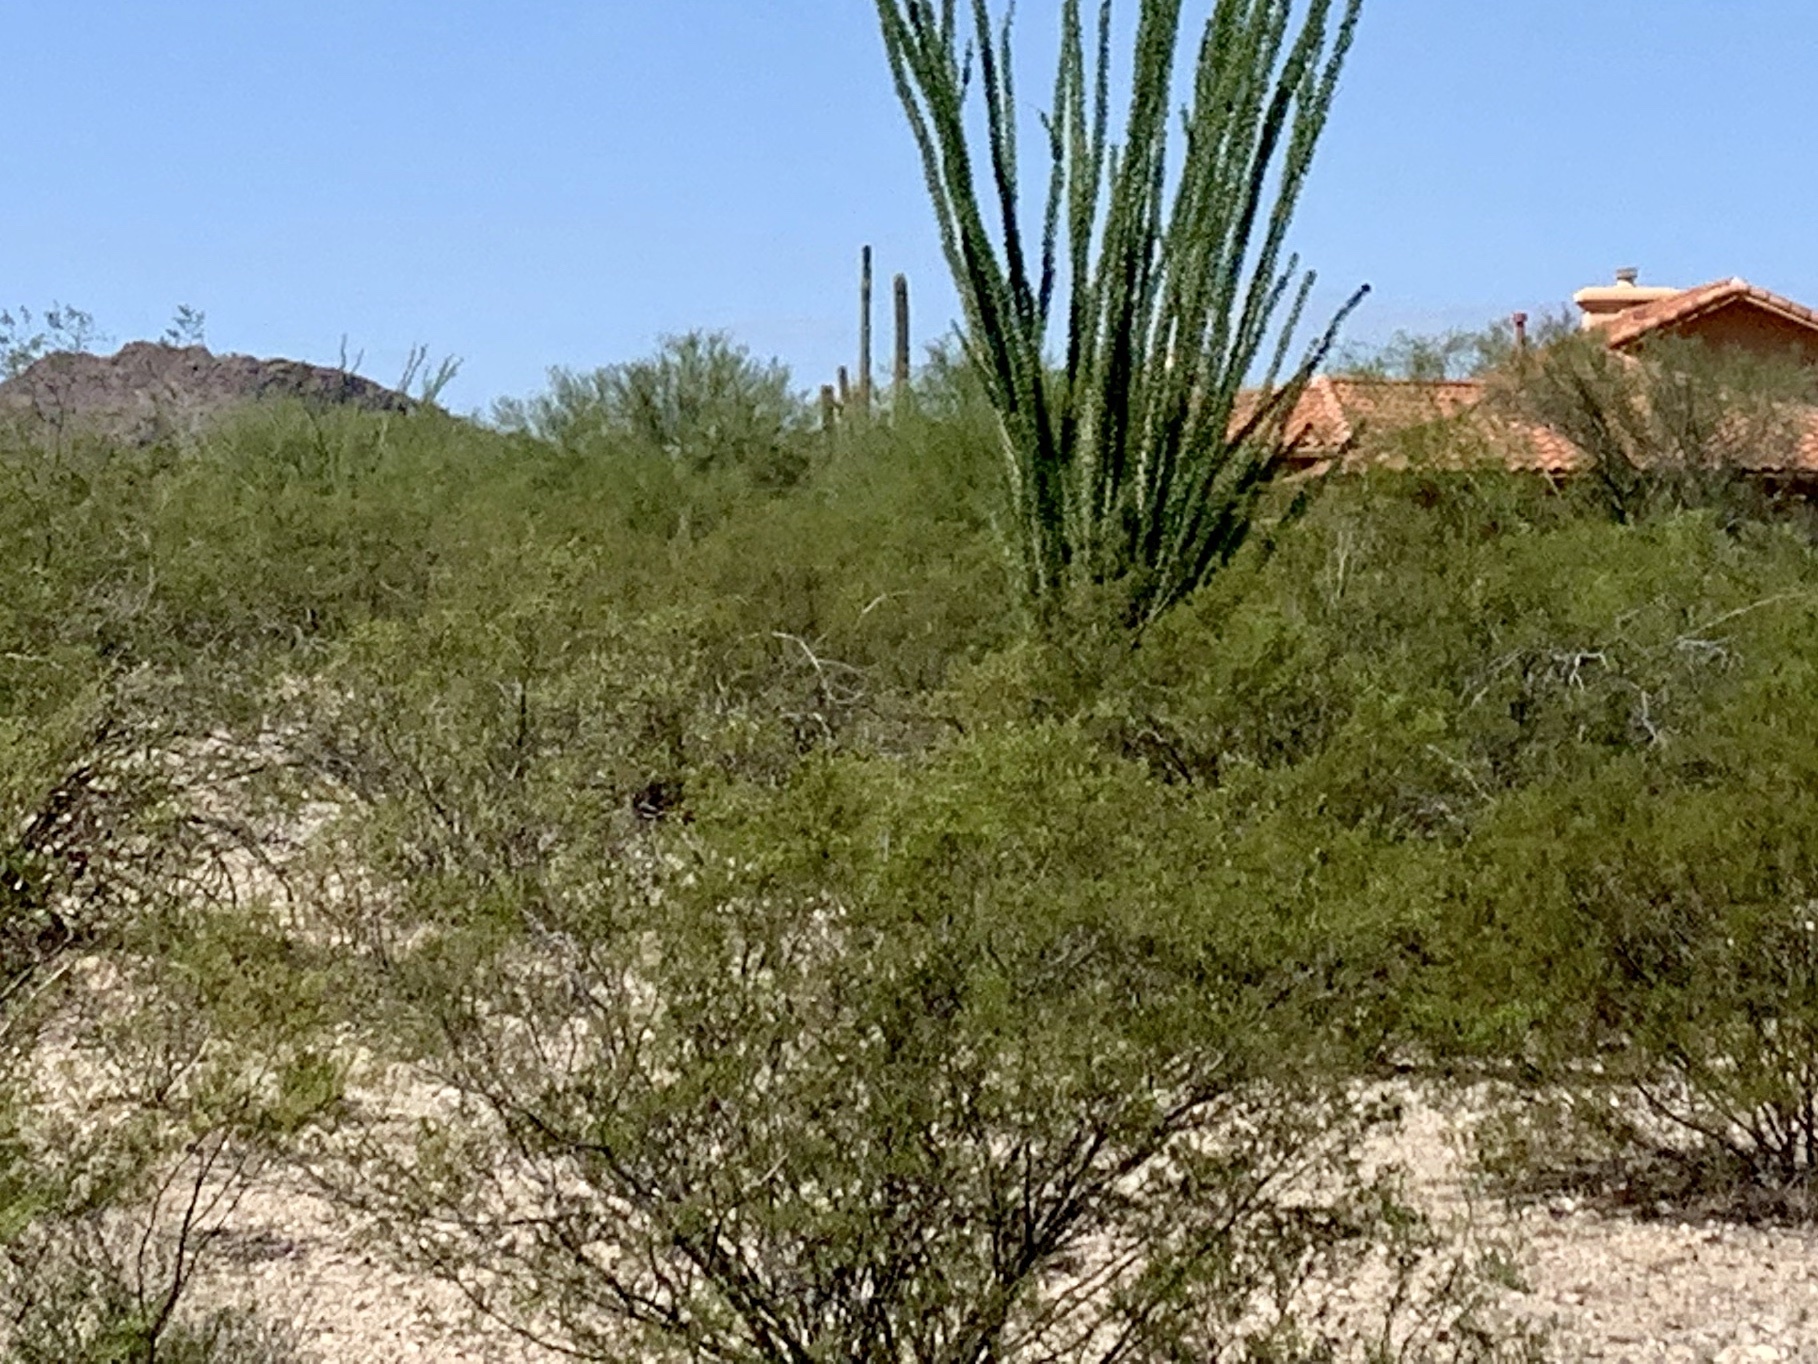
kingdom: Plantae
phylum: Tracheophyta
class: Magnoliopsida
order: Zygophyllales
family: Zygophyllaceae
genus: Larrea
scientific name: Larrea tridentata
